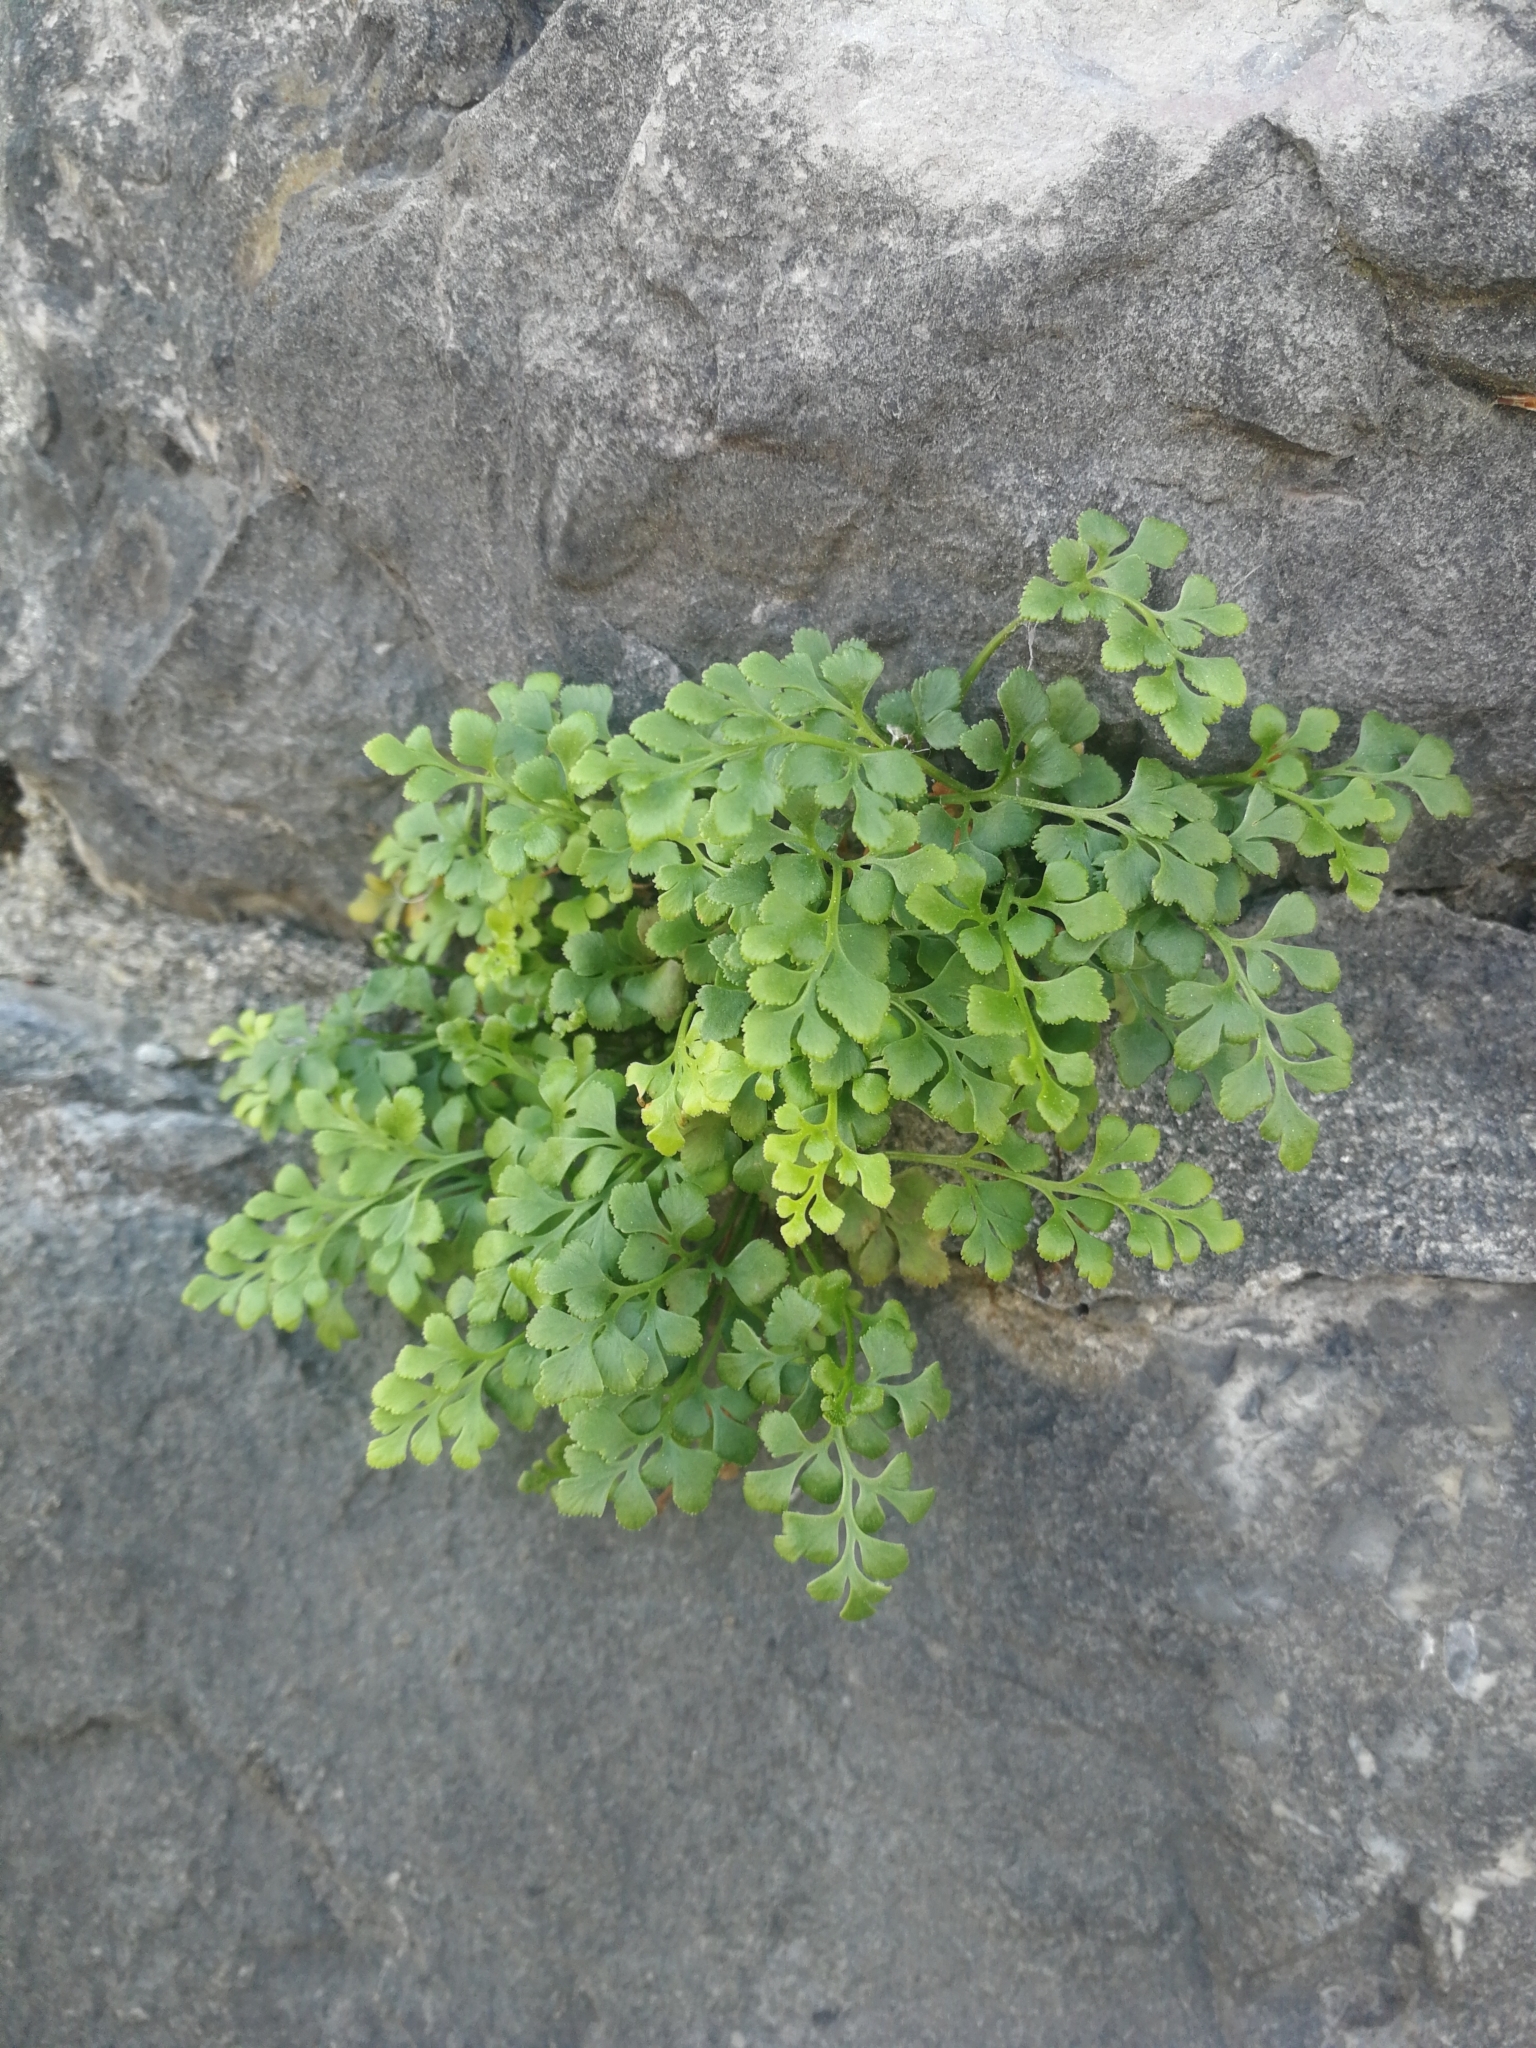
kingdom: Plantae
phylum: Tracheophyta
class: Polypodiopsida
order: Polypodiales
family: Aspleniaceae
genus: Asplenium
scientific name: Asplenium ruta-muraria
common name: Wall-rue
